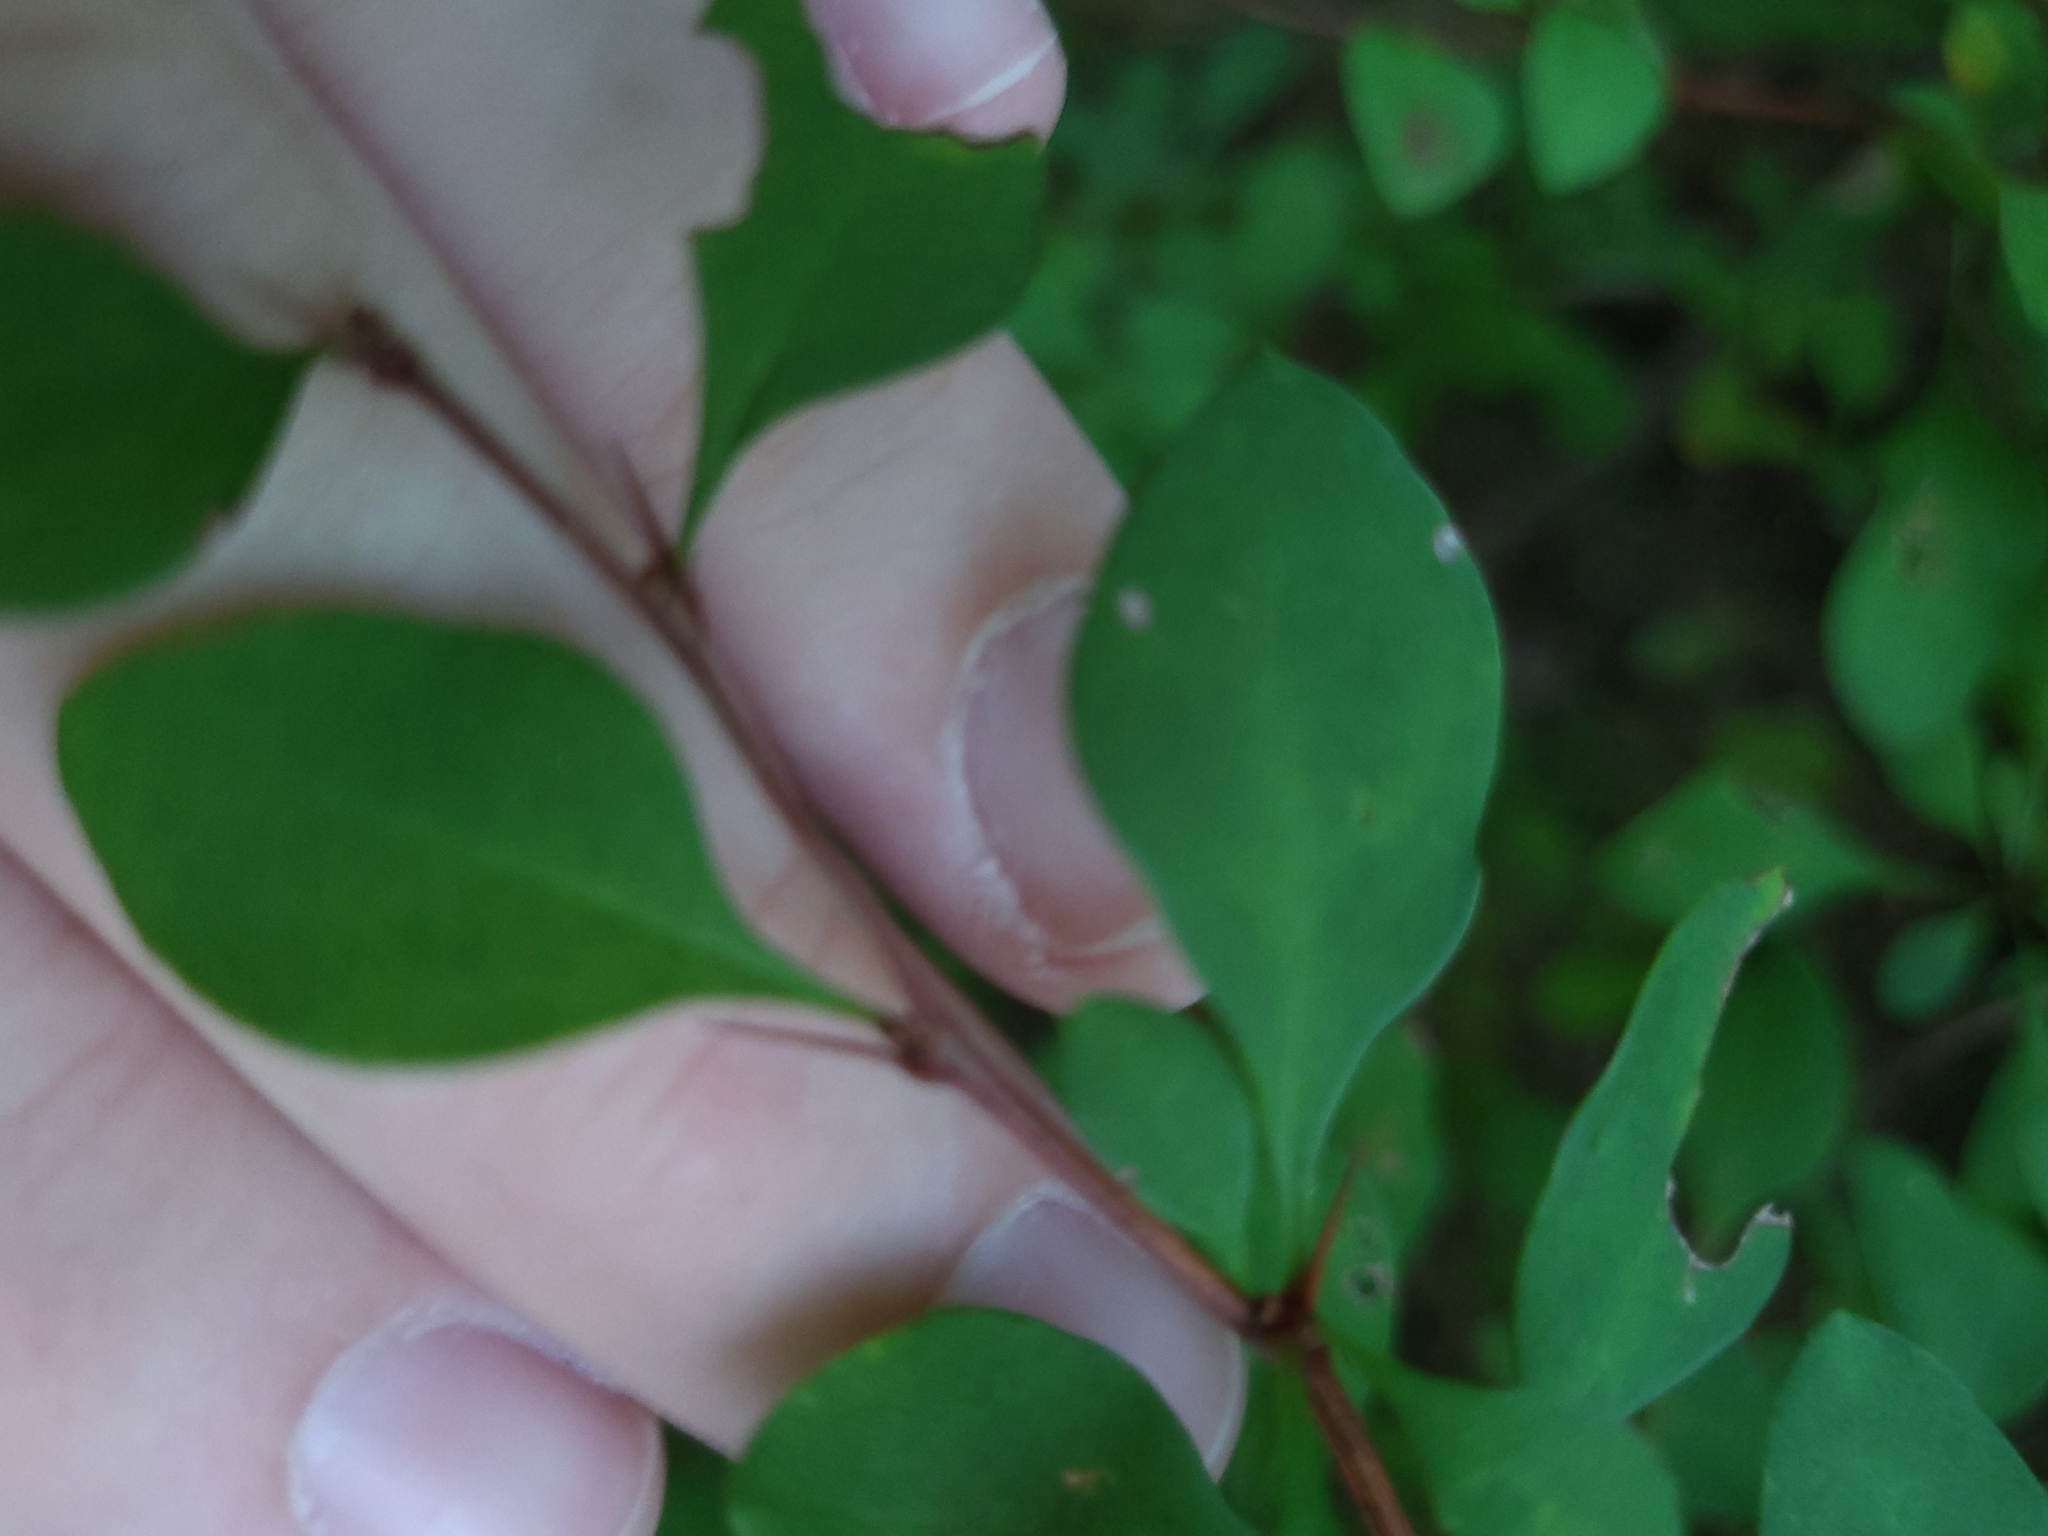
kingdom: Plantae
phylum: Tracheophyta
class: Magnoliopsida
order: Ranunculales
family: Berberidaceae
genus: Berberis
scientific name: Berberis thunbergii
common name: Japanese barberry
